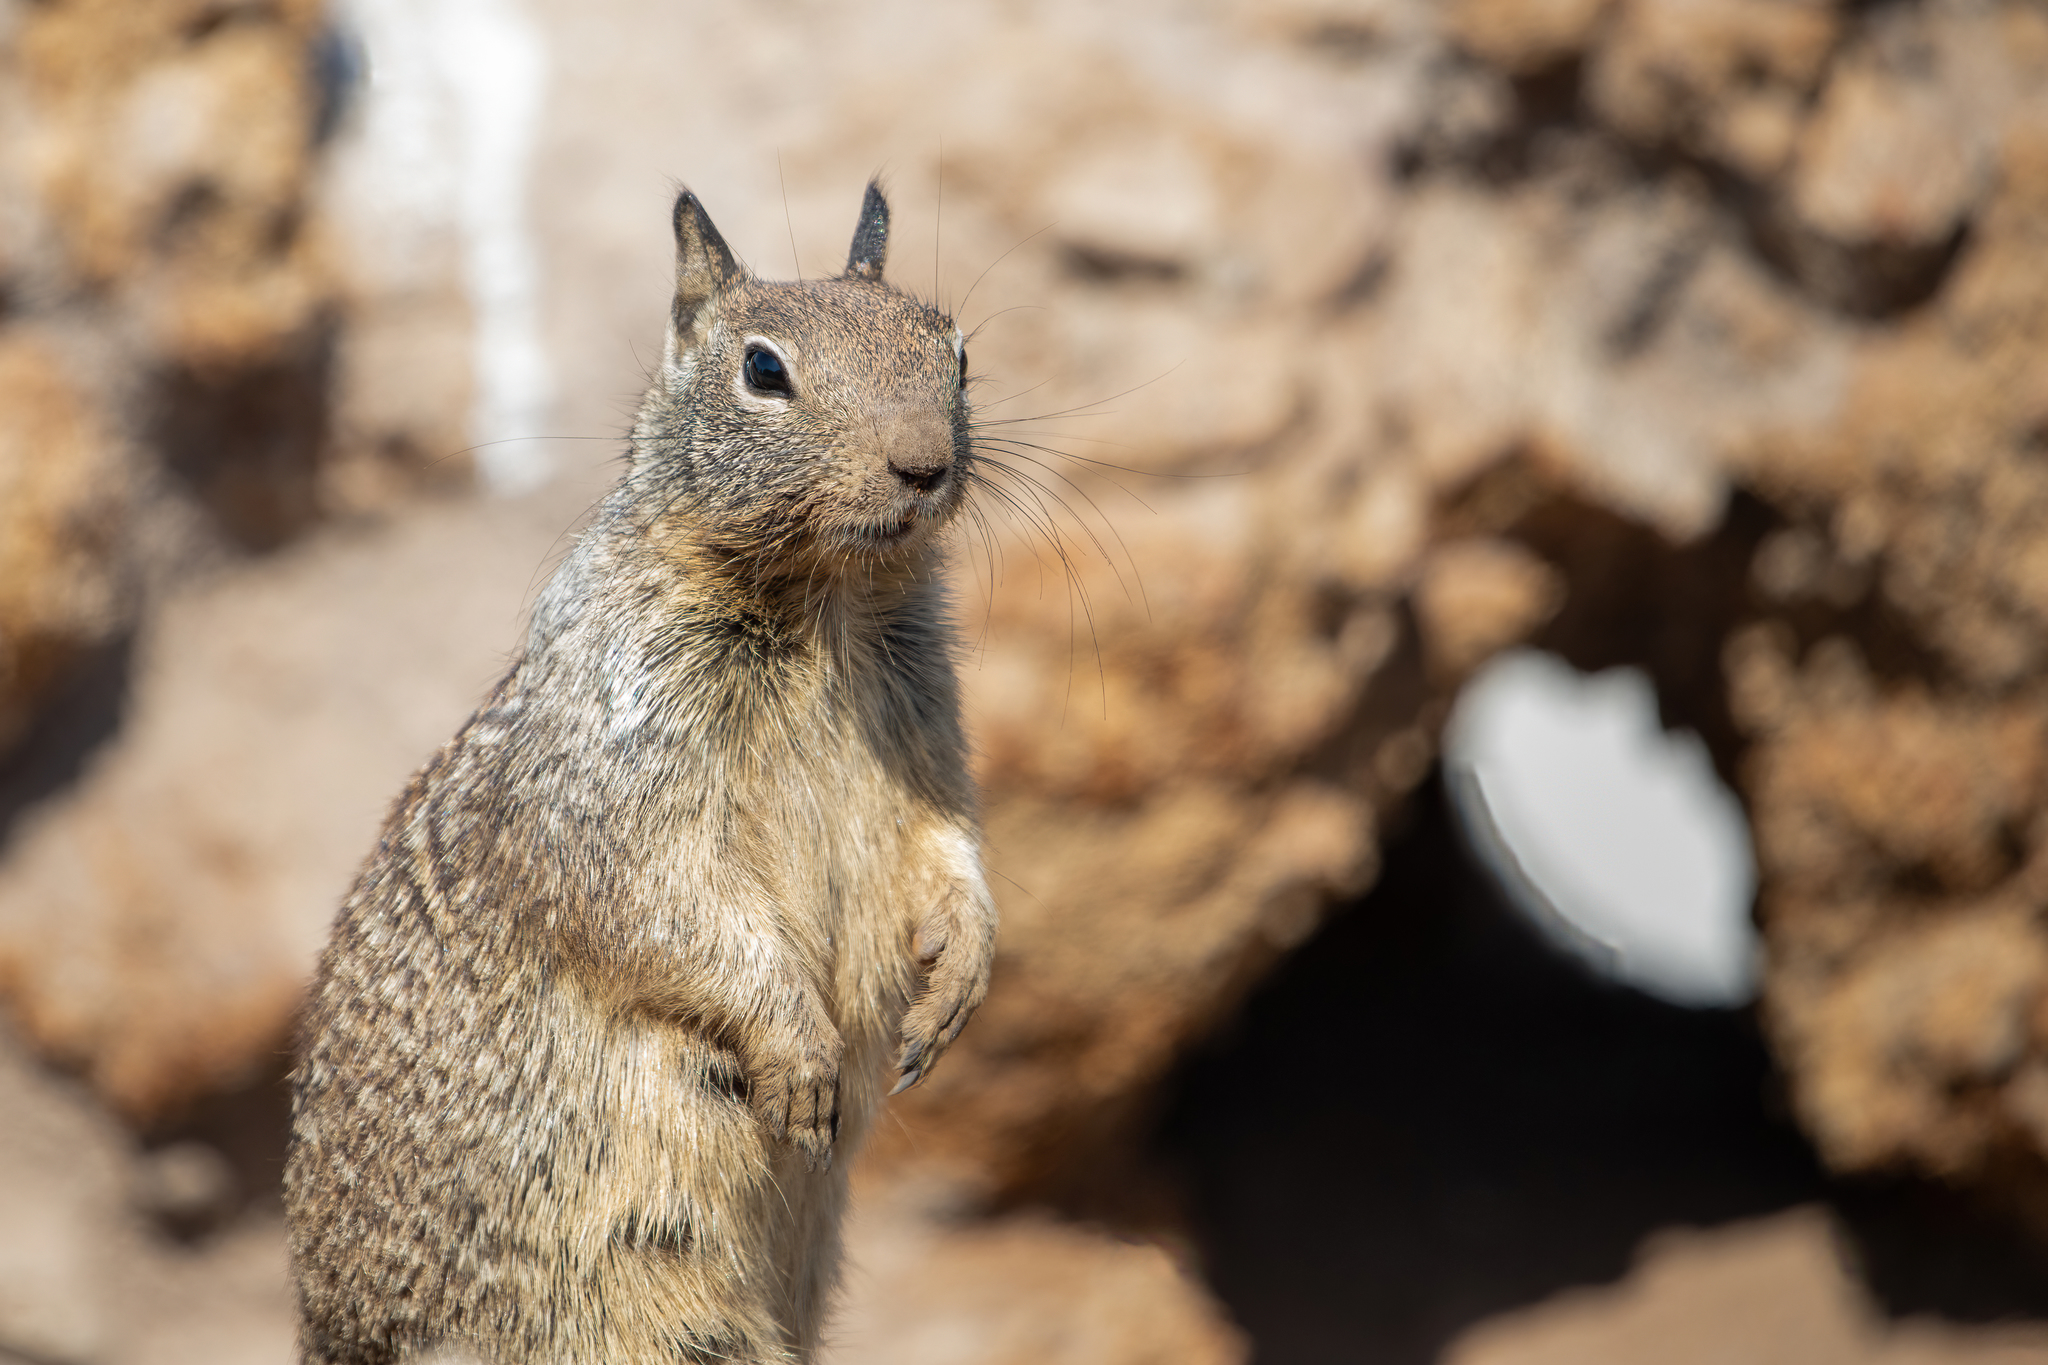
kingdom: Animalia
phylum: Chordata
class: Mammalia
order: Rodentia
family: Sciuridae
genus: Otospermophilus
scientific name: Otospermophilus beecheyi
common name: California ground squirrel
